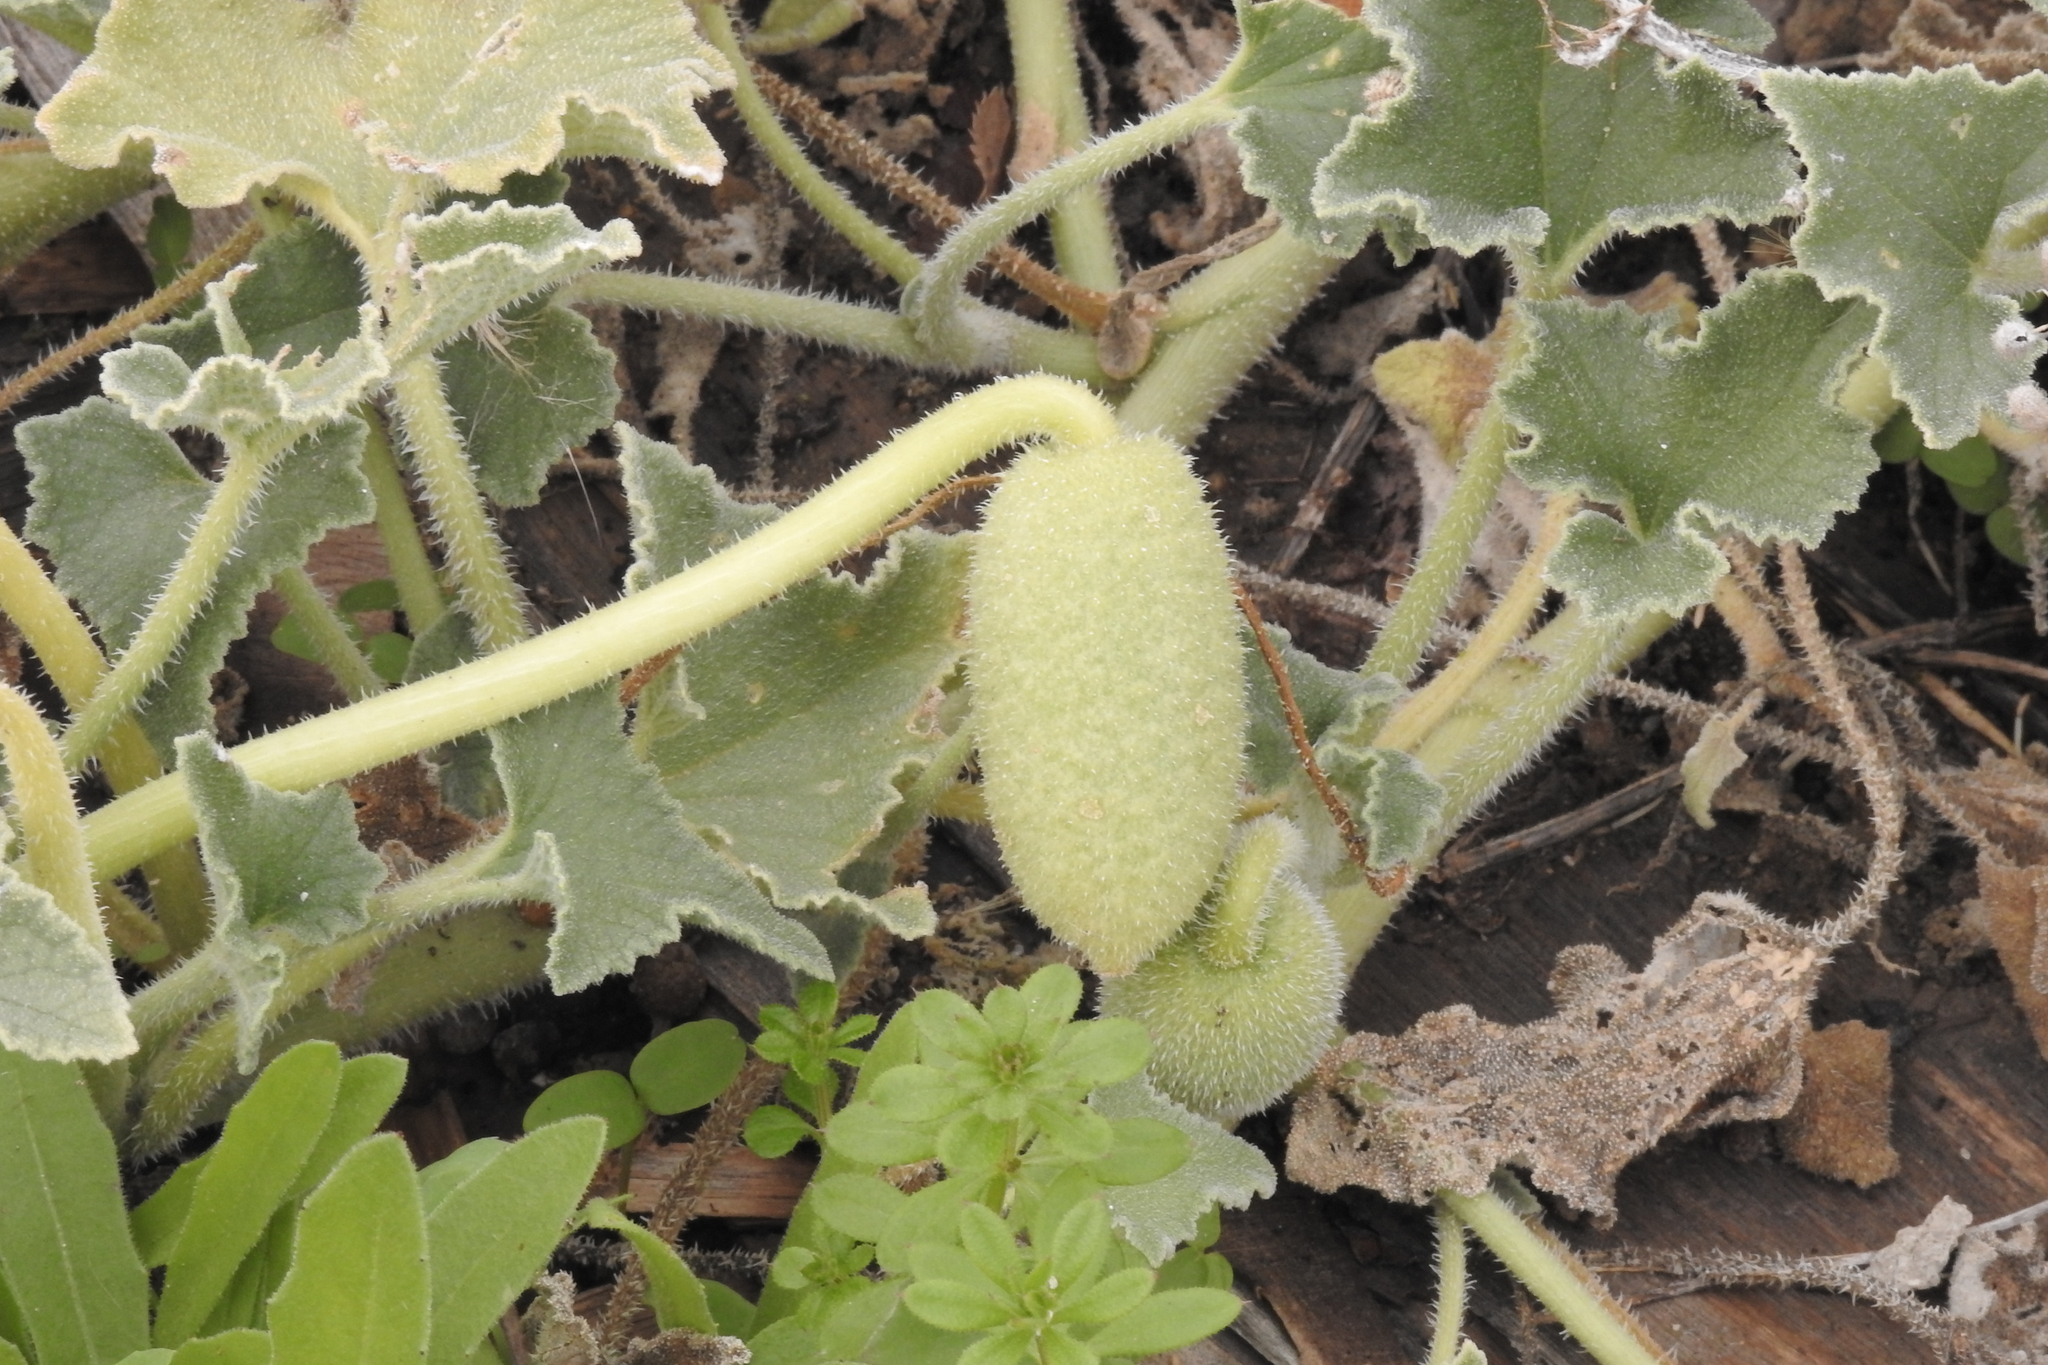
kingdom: Plantae
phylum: Tracheophyta
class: Magnoliopsida
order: Cucurbitales
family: Cucurbitaceae
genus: Ecballium
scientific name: Ecballium elaterium
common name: Squirting cucumber
